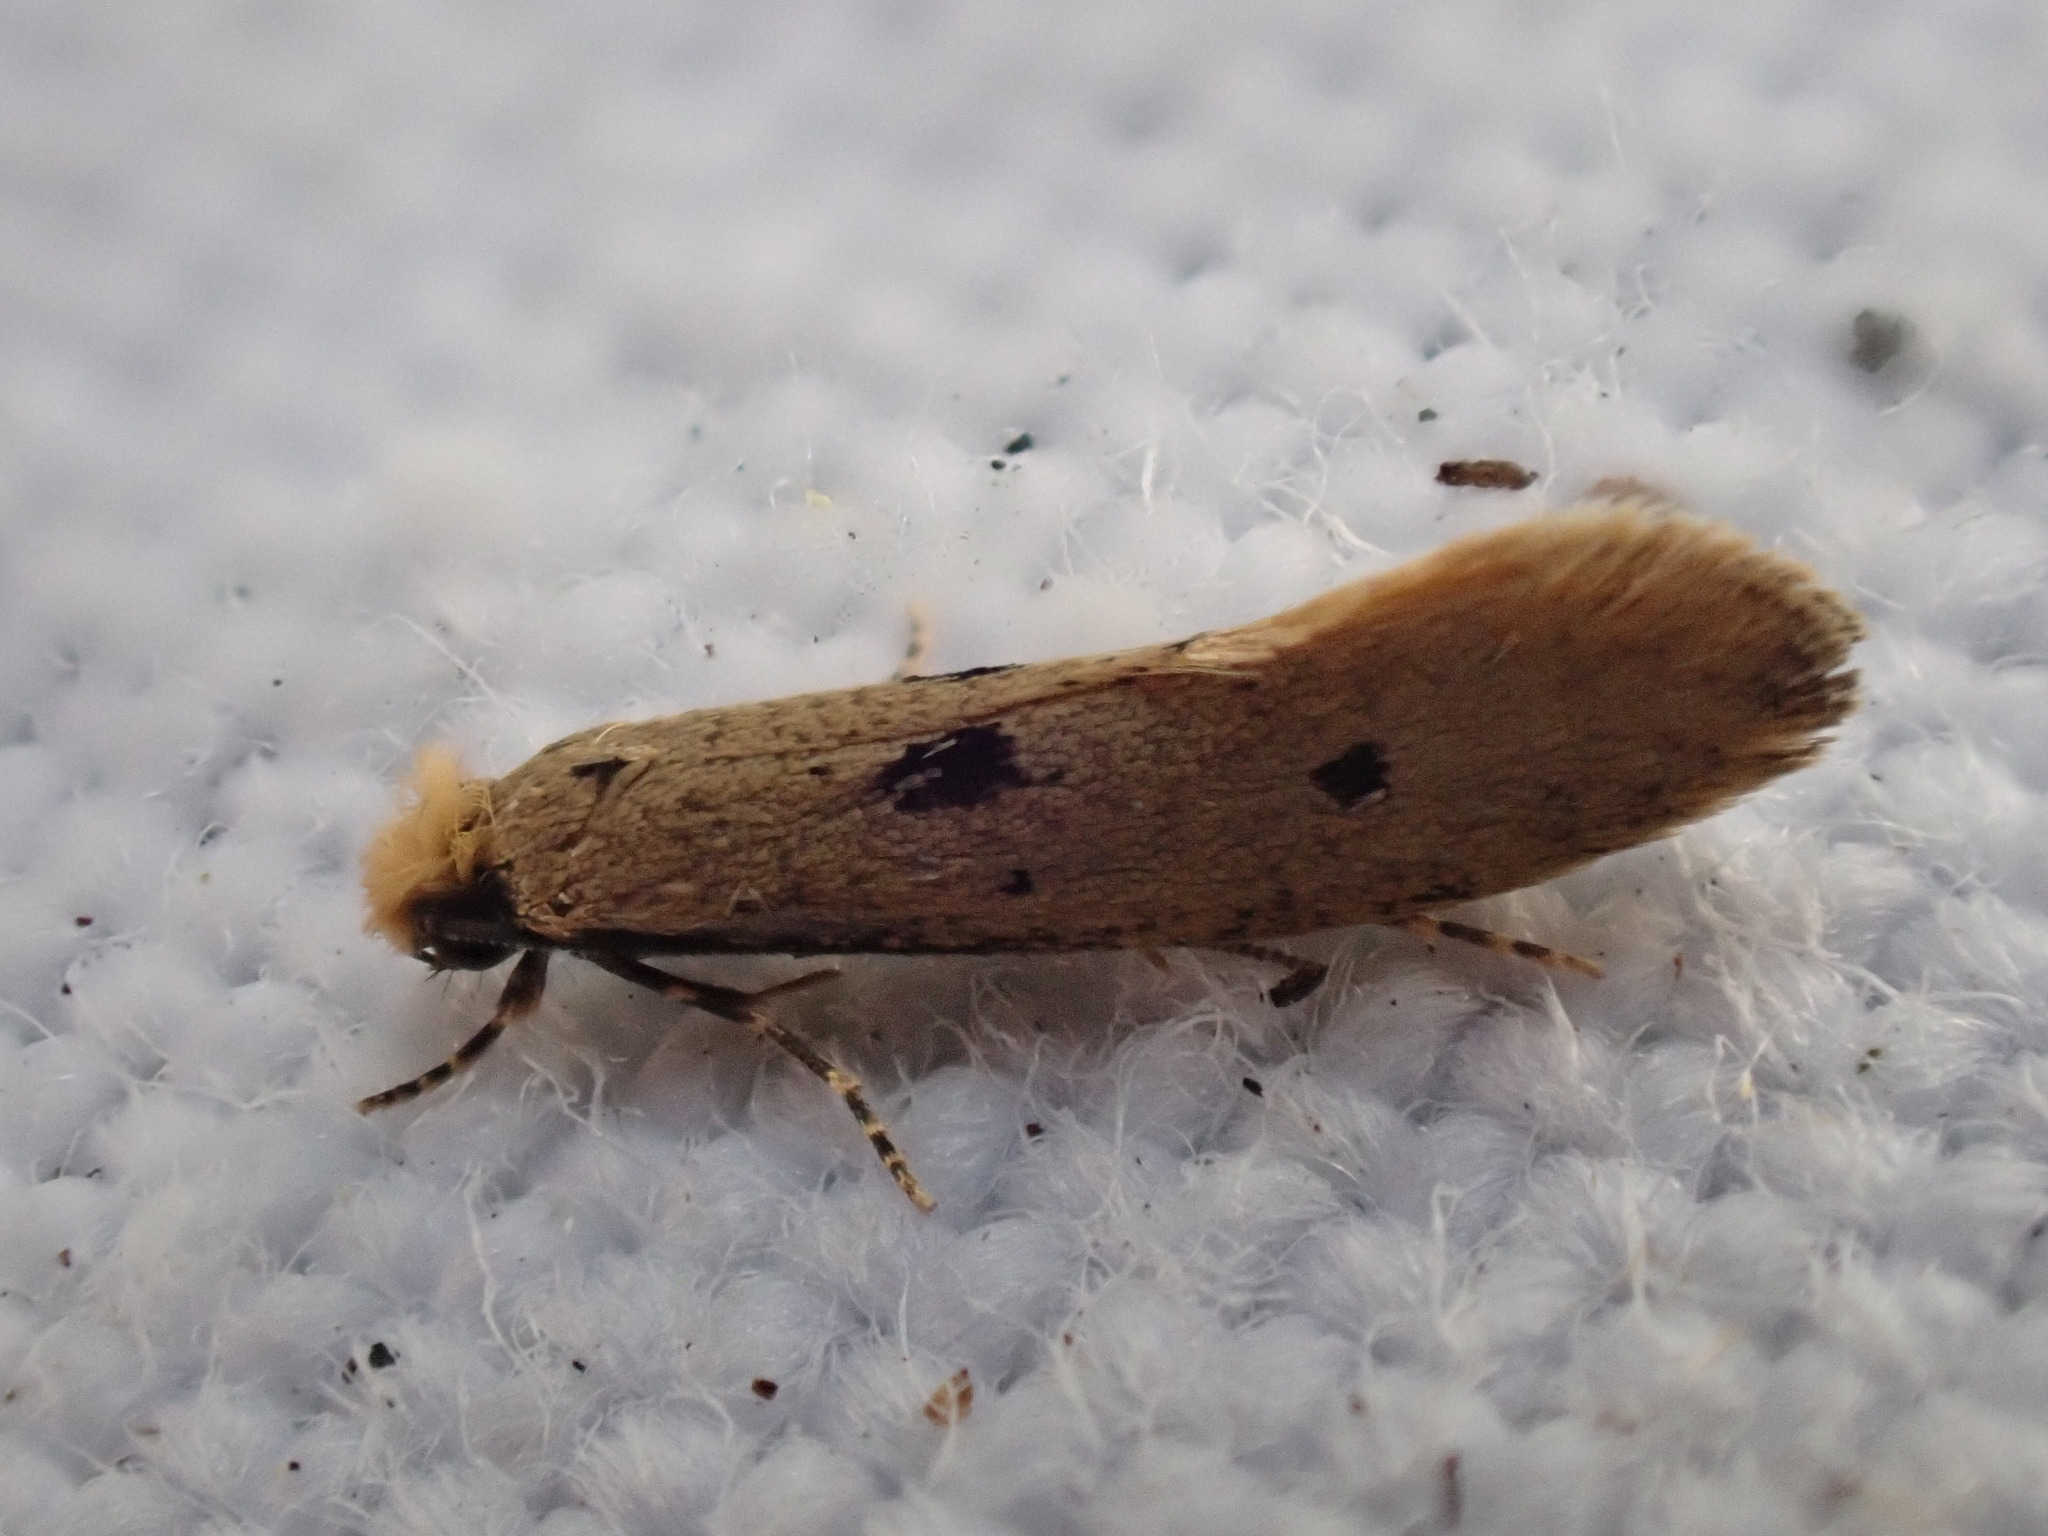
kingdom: Animalia
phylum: Arthropoda
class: Insecta
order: Lepidoptera
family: Tineidae
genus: Tinea
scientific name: Tinea trinotella
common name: Bird's-nest moth
